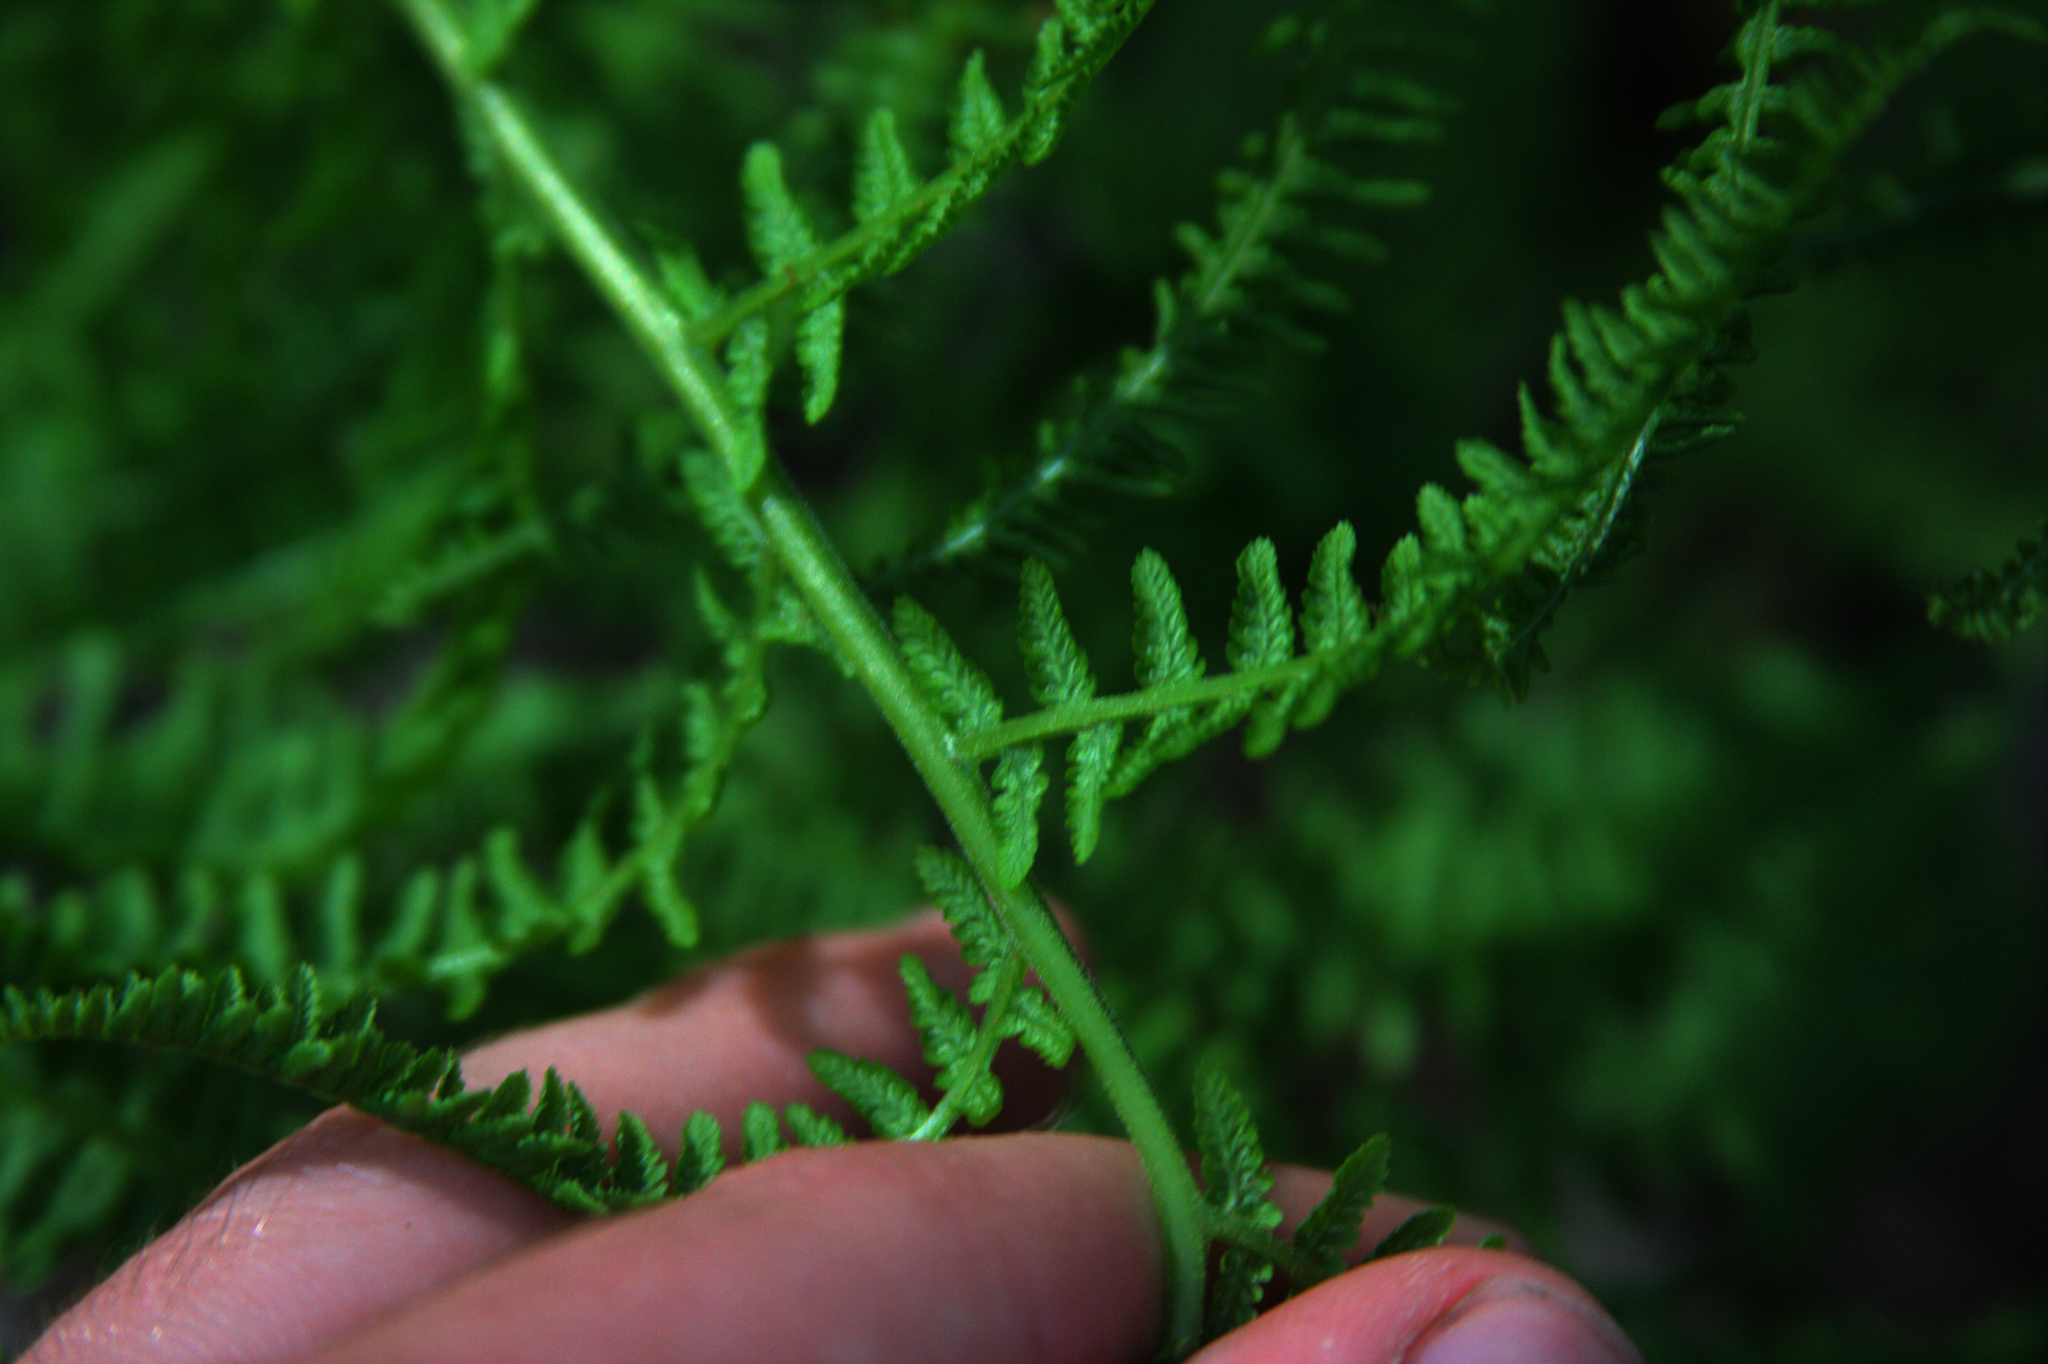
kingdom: Plantae
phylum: Tracheophyta
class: Polypodiopsida
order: Polypodiales
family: Athyriaceae
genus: Athyrium
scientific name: Athyrium angustum
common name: Northern lady fern
